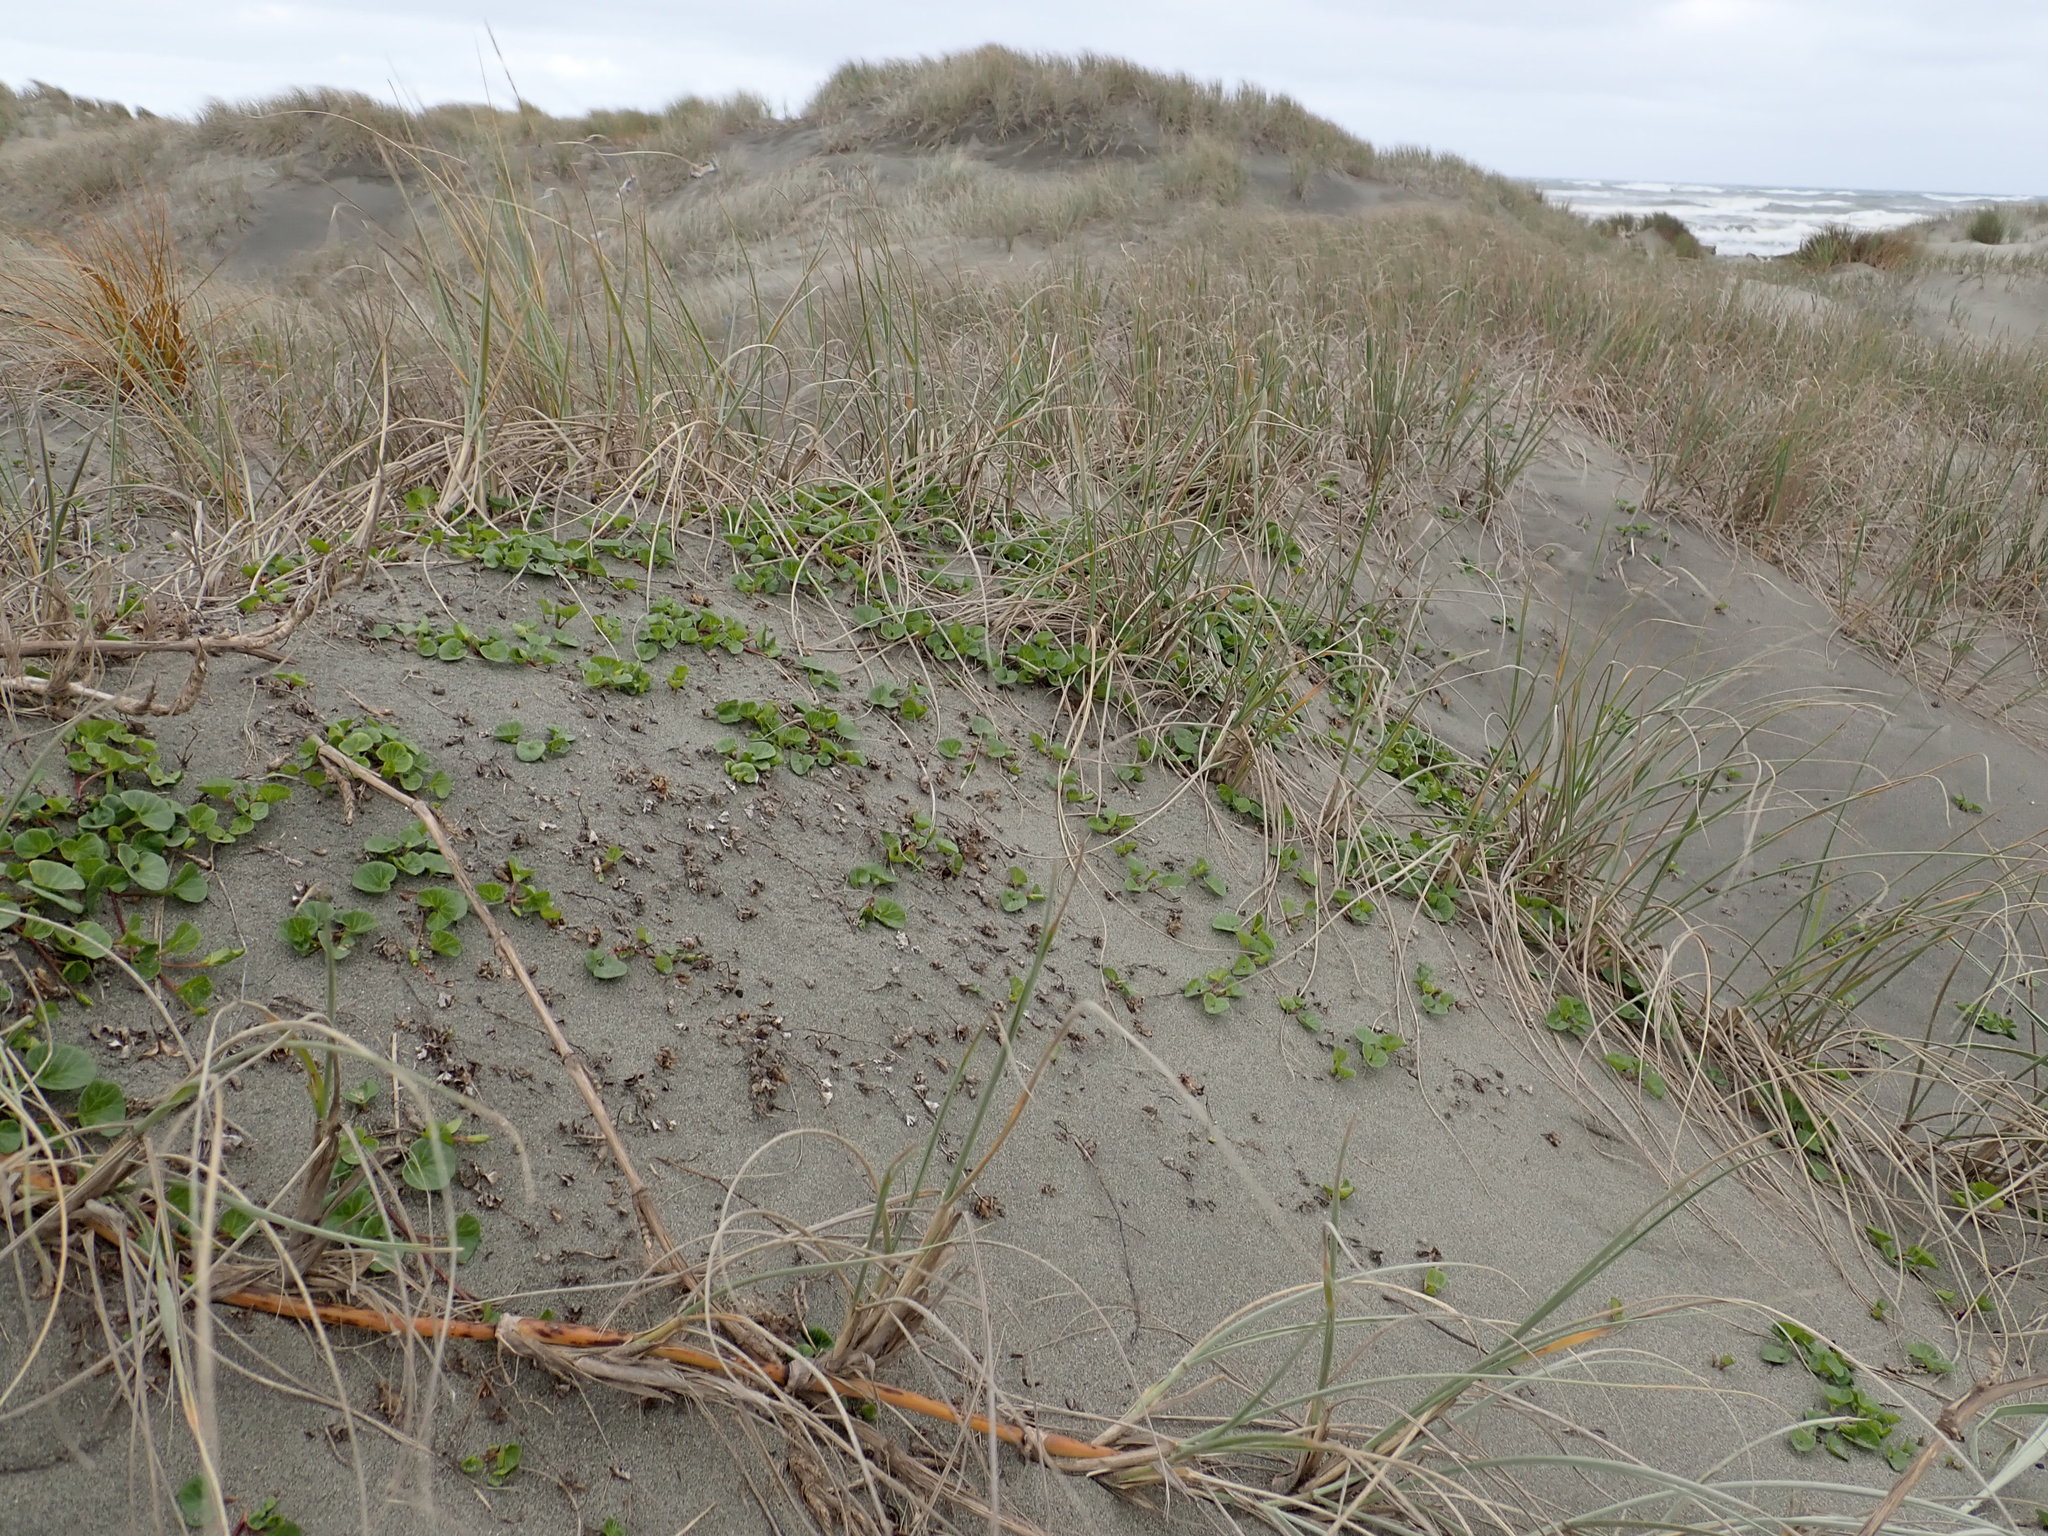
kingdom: Plantae
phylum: Tracheophyta
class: Magnoliopsida
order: Solanales
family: Convolvulaceae
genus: Calystegia
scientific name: Calystegia soldanella
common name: Sea bindweed
